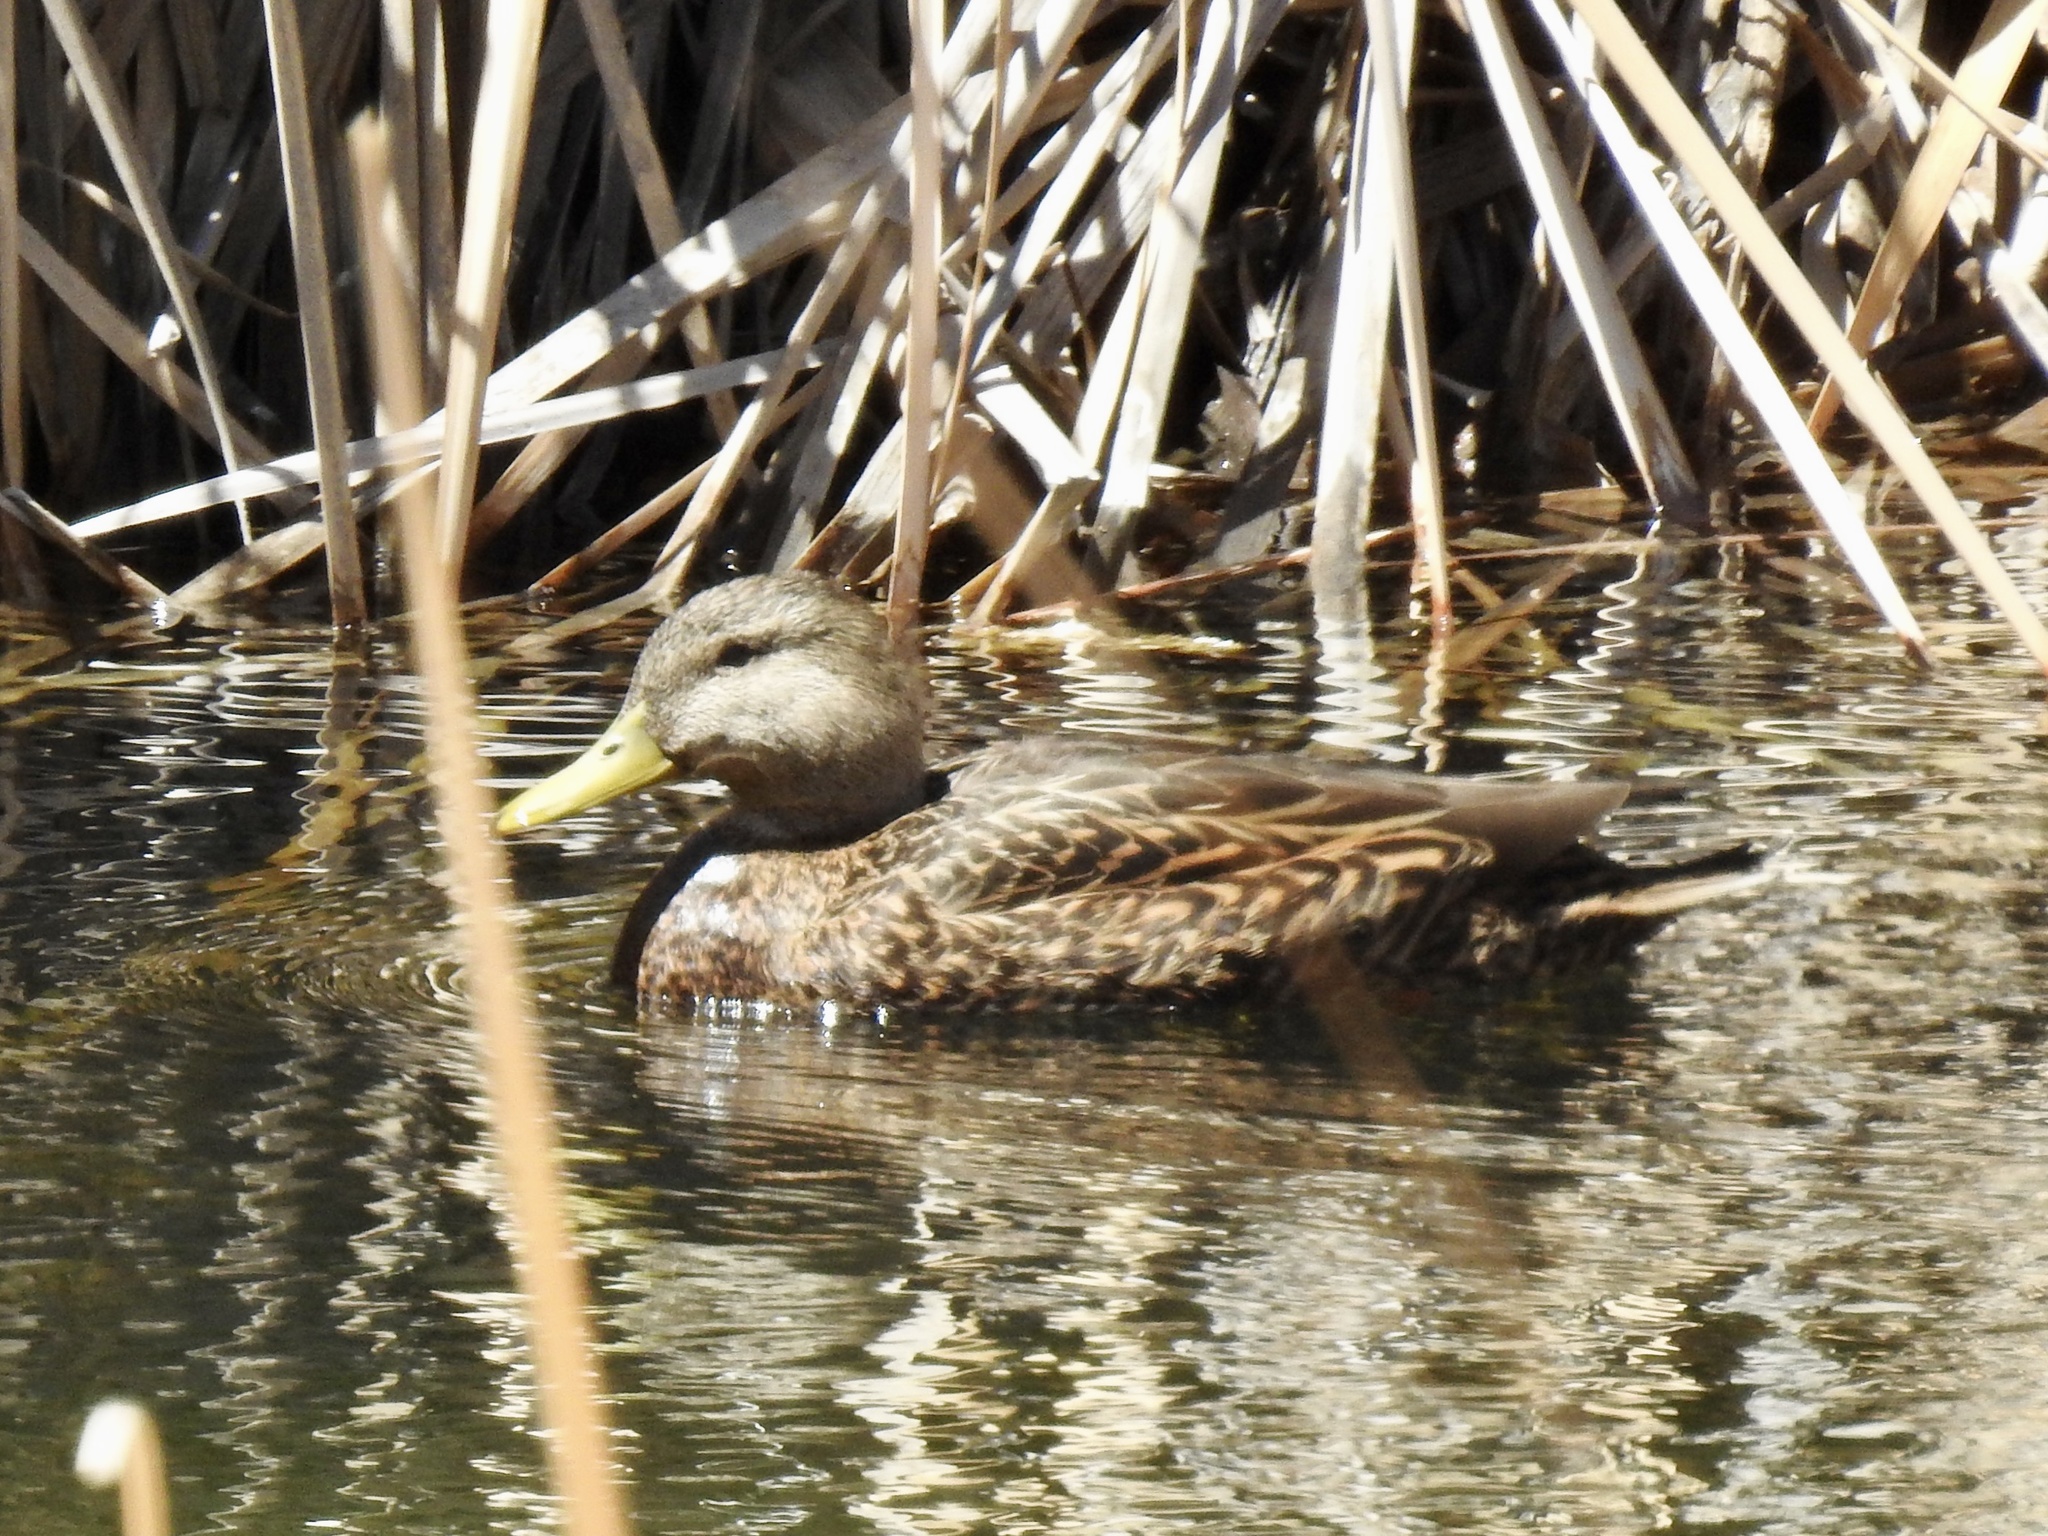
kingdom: Animalia
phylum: Chordata
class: Aves
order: Anseriformes
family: Anatidae
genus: Anas
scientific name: Anas diazi
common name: Mexican duck
